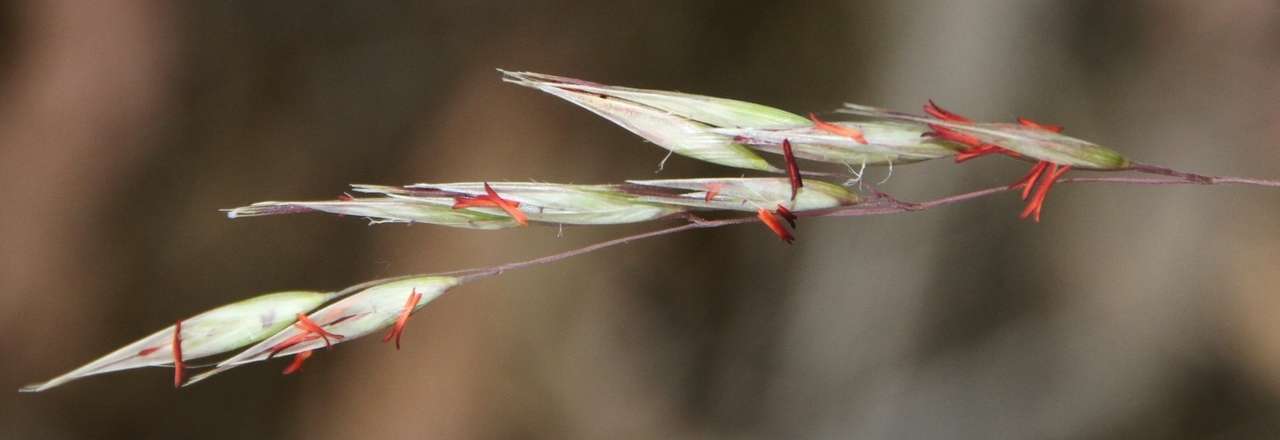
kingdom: Plantae
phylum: Tracheophyta
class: Liliopsida
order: Poales
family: Poaceae
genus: Rytidosperma
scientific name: Rytidosperma pallidum
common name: Red-anther wallaby grass
